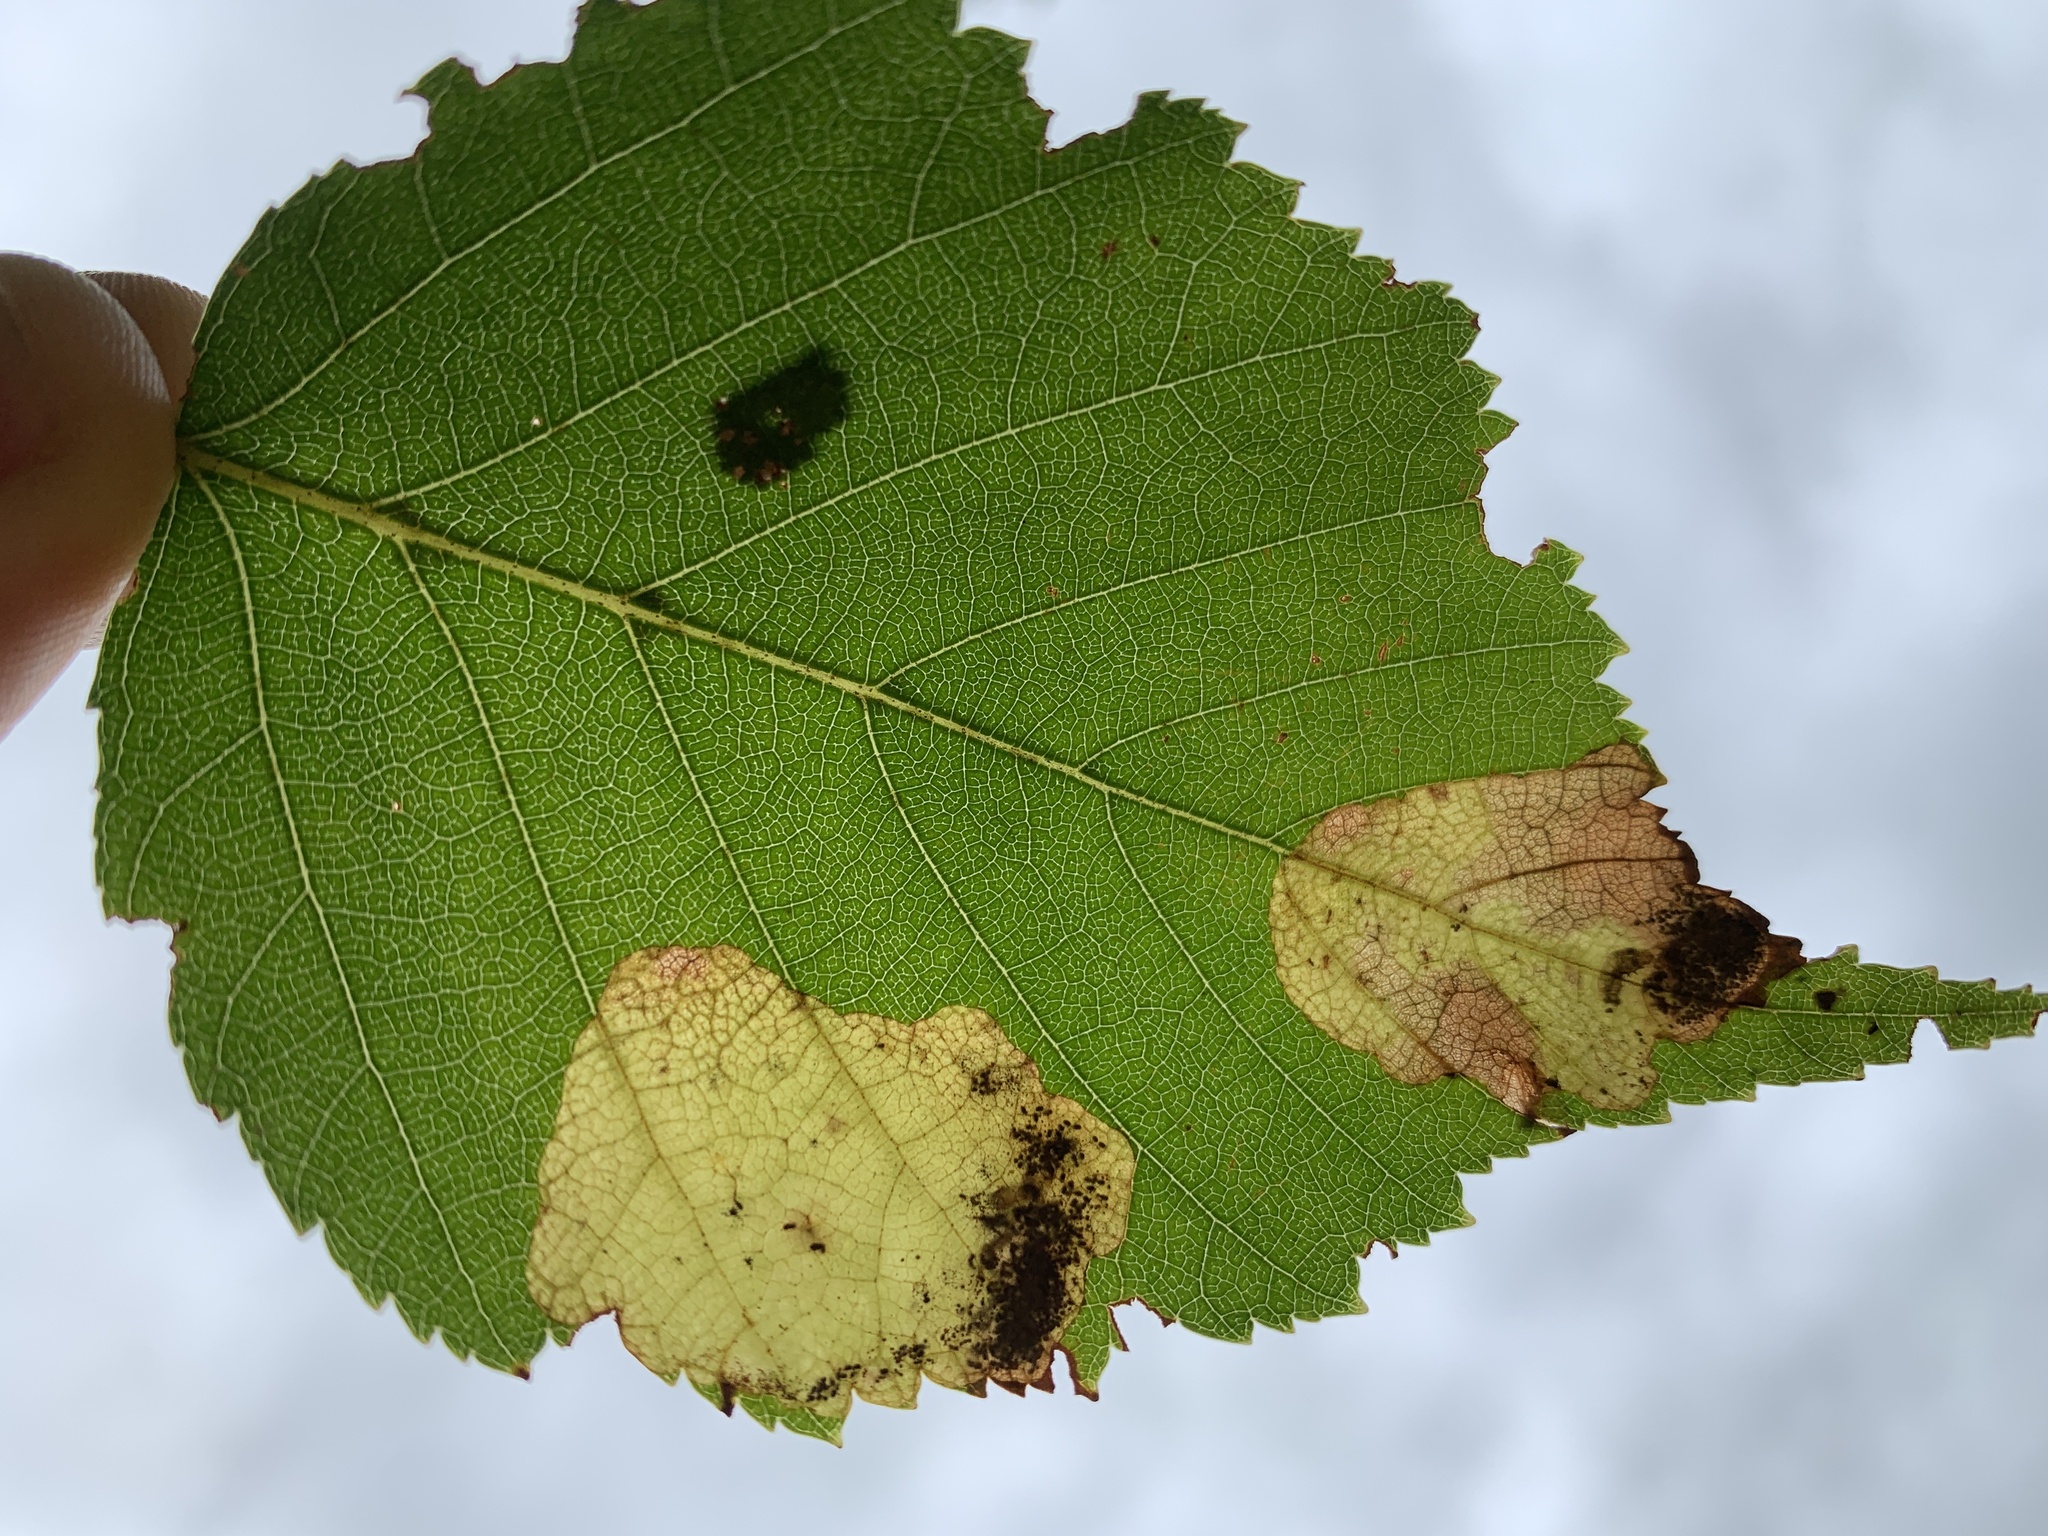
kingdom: Animalia
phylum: Arthropoda
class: Insecta
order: Hymenoptera
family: Tenthredinidae
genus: Fenusella
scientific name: Fenusella nana
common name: Early birch leaf edgeminer
